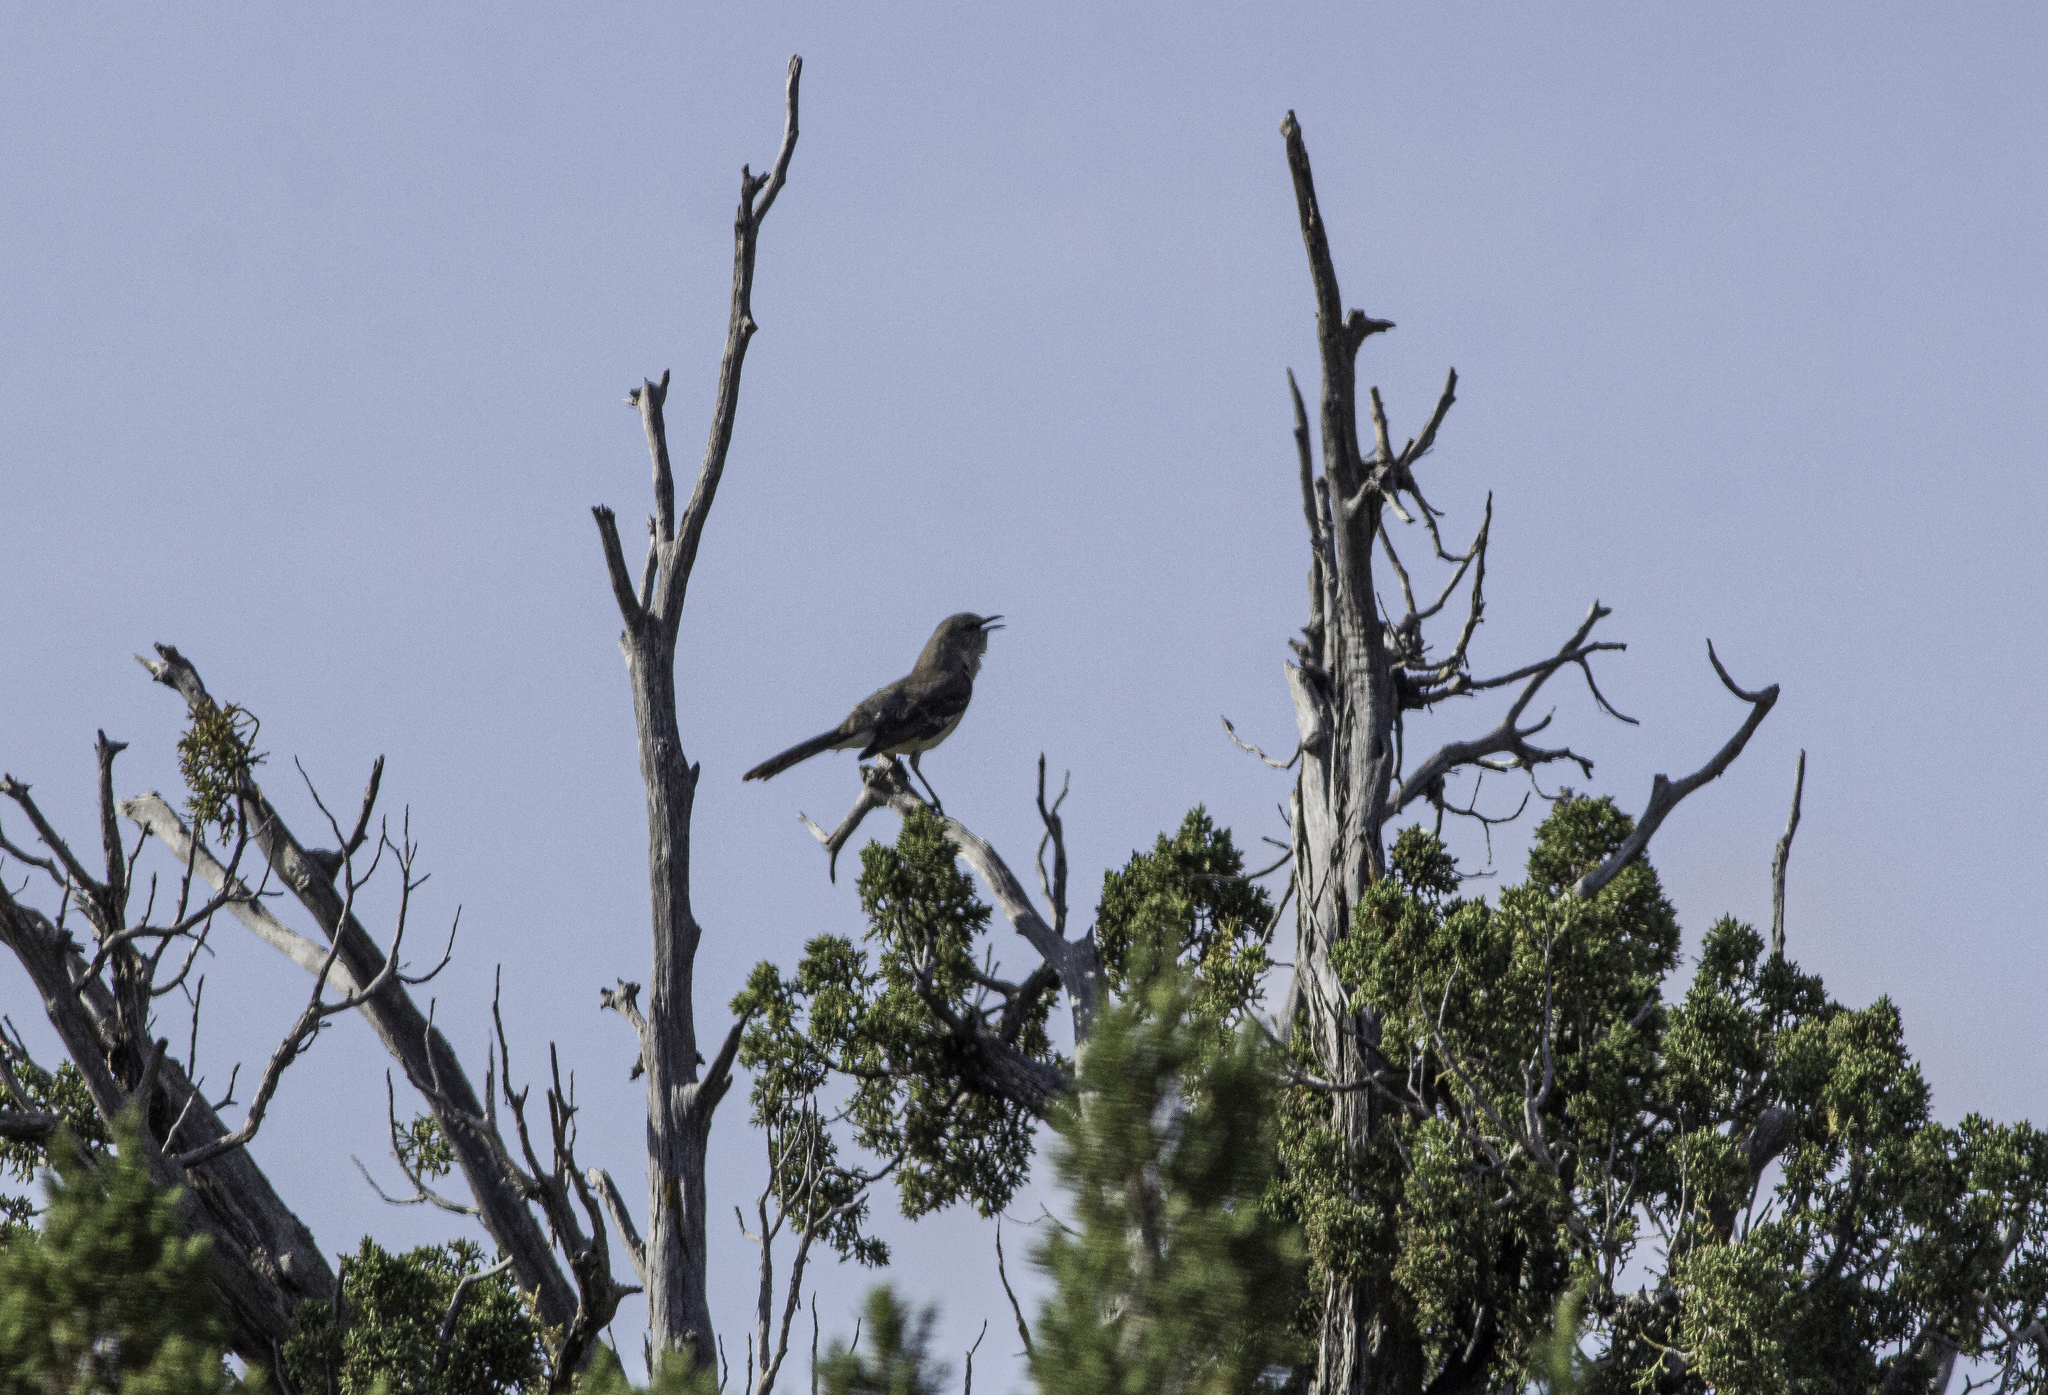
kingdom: Animalia
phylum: Chordata
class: Aves
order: Passeriformes
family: Mimidae
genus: Mimus
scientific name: Mimus polyglottos
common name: Northern mockingbird
